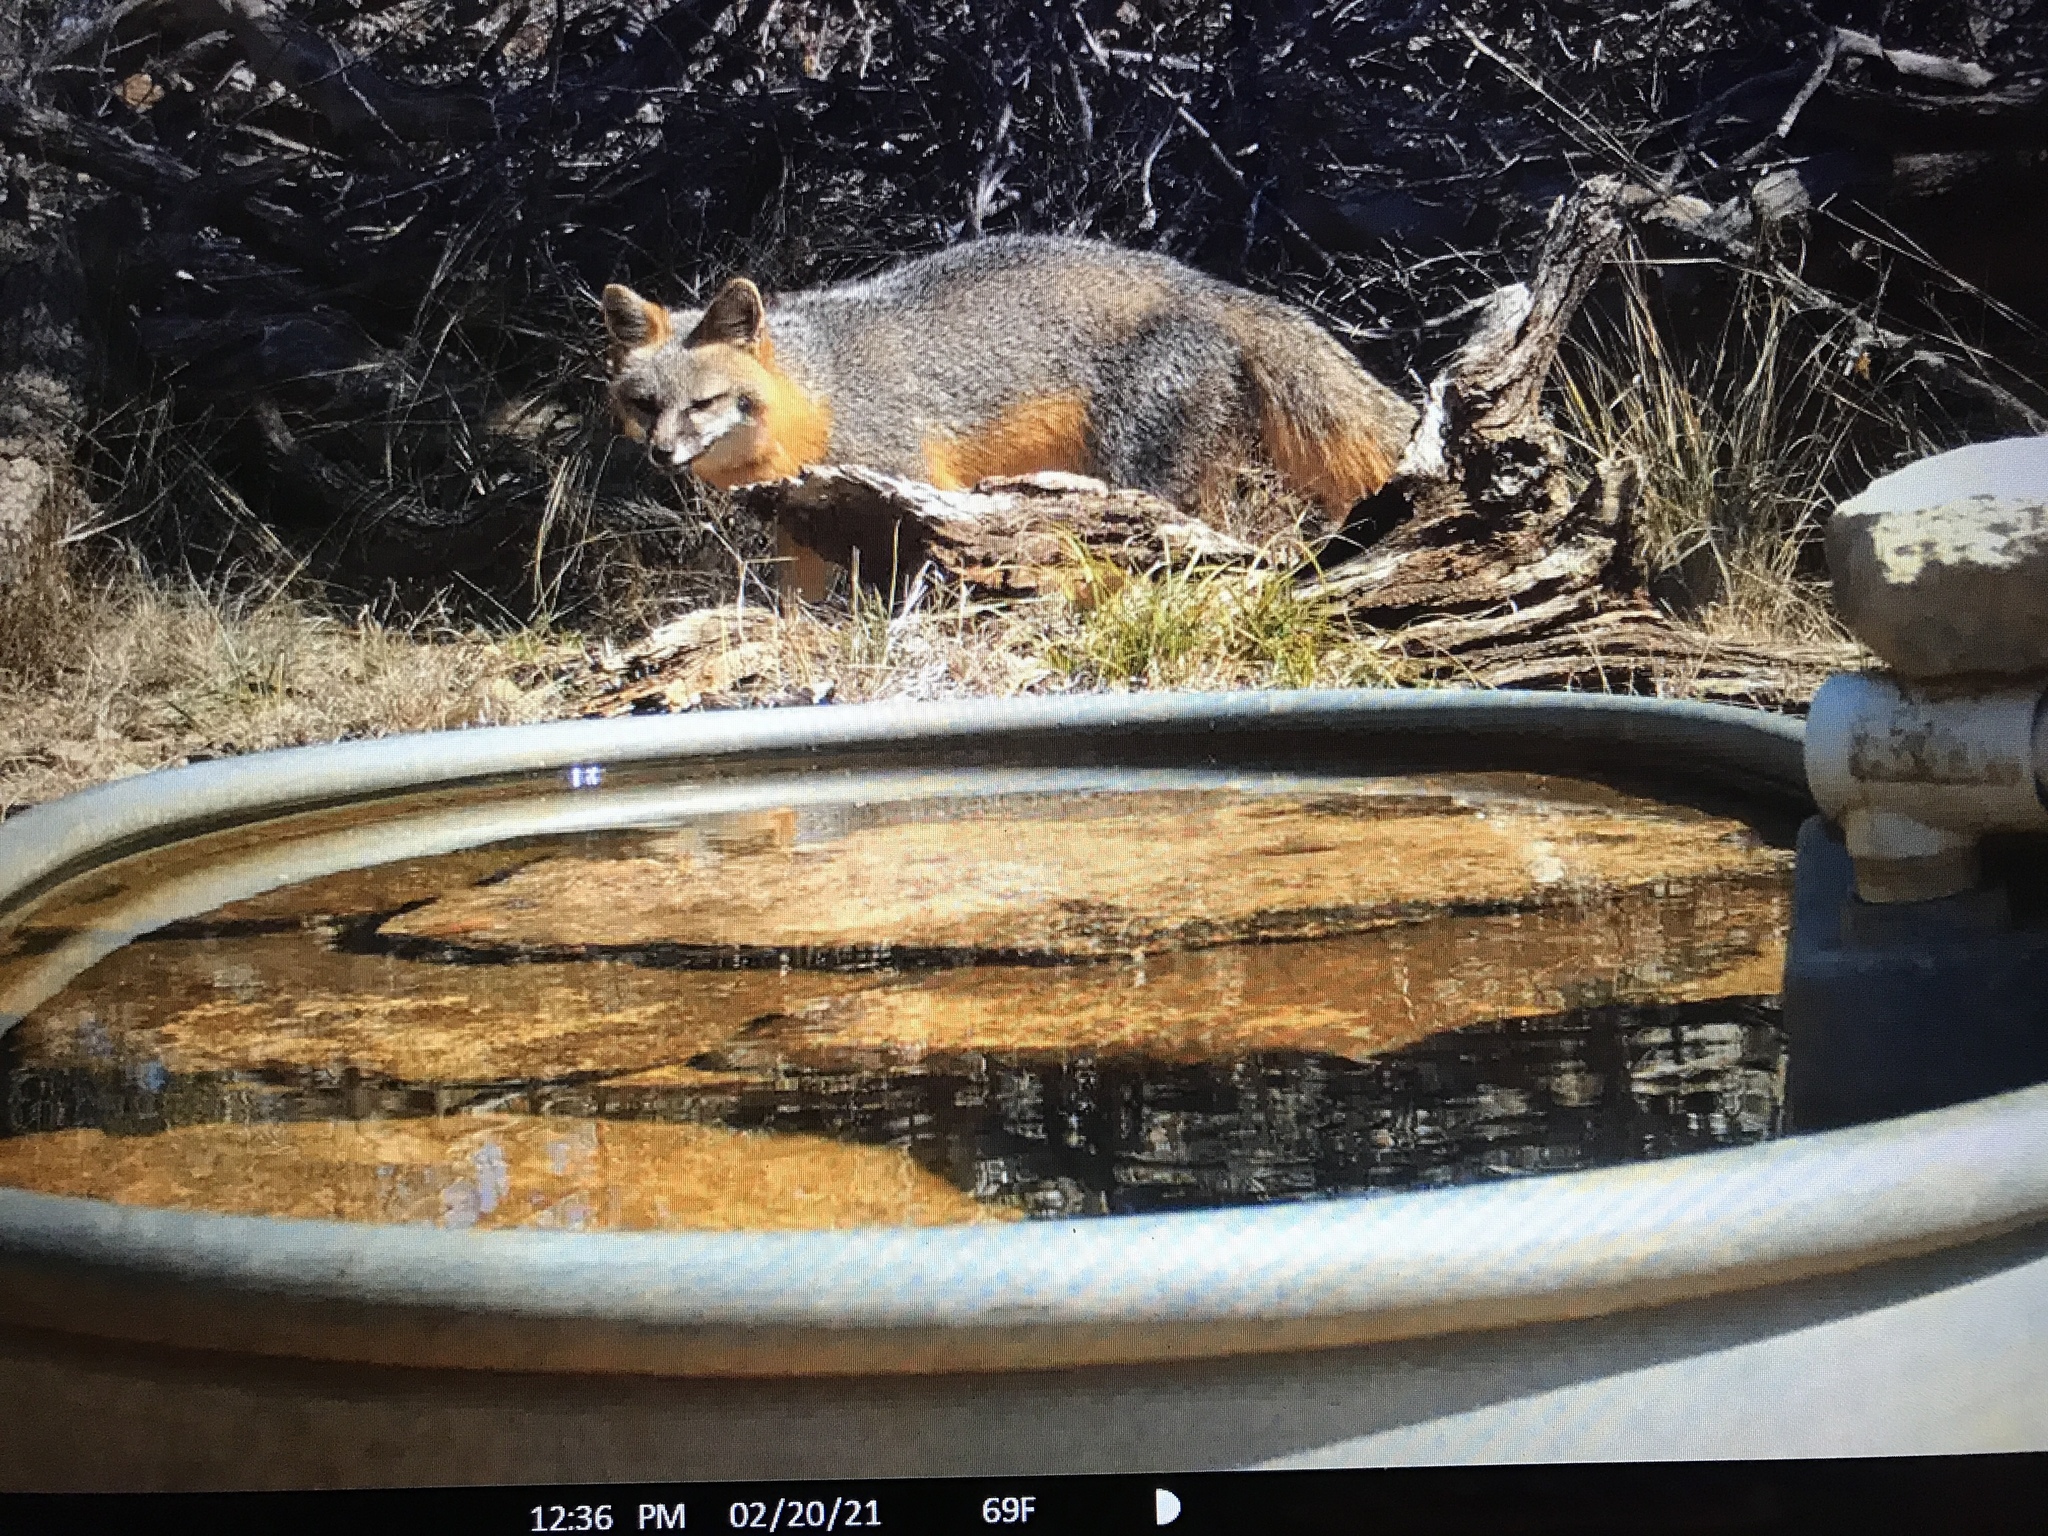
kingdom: Animalia
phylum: Chordata
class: Mammalia
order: Carnivora
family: Canidae
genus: Urocyon
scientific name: Urocyon cinereoargenteus
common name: Gray fox
